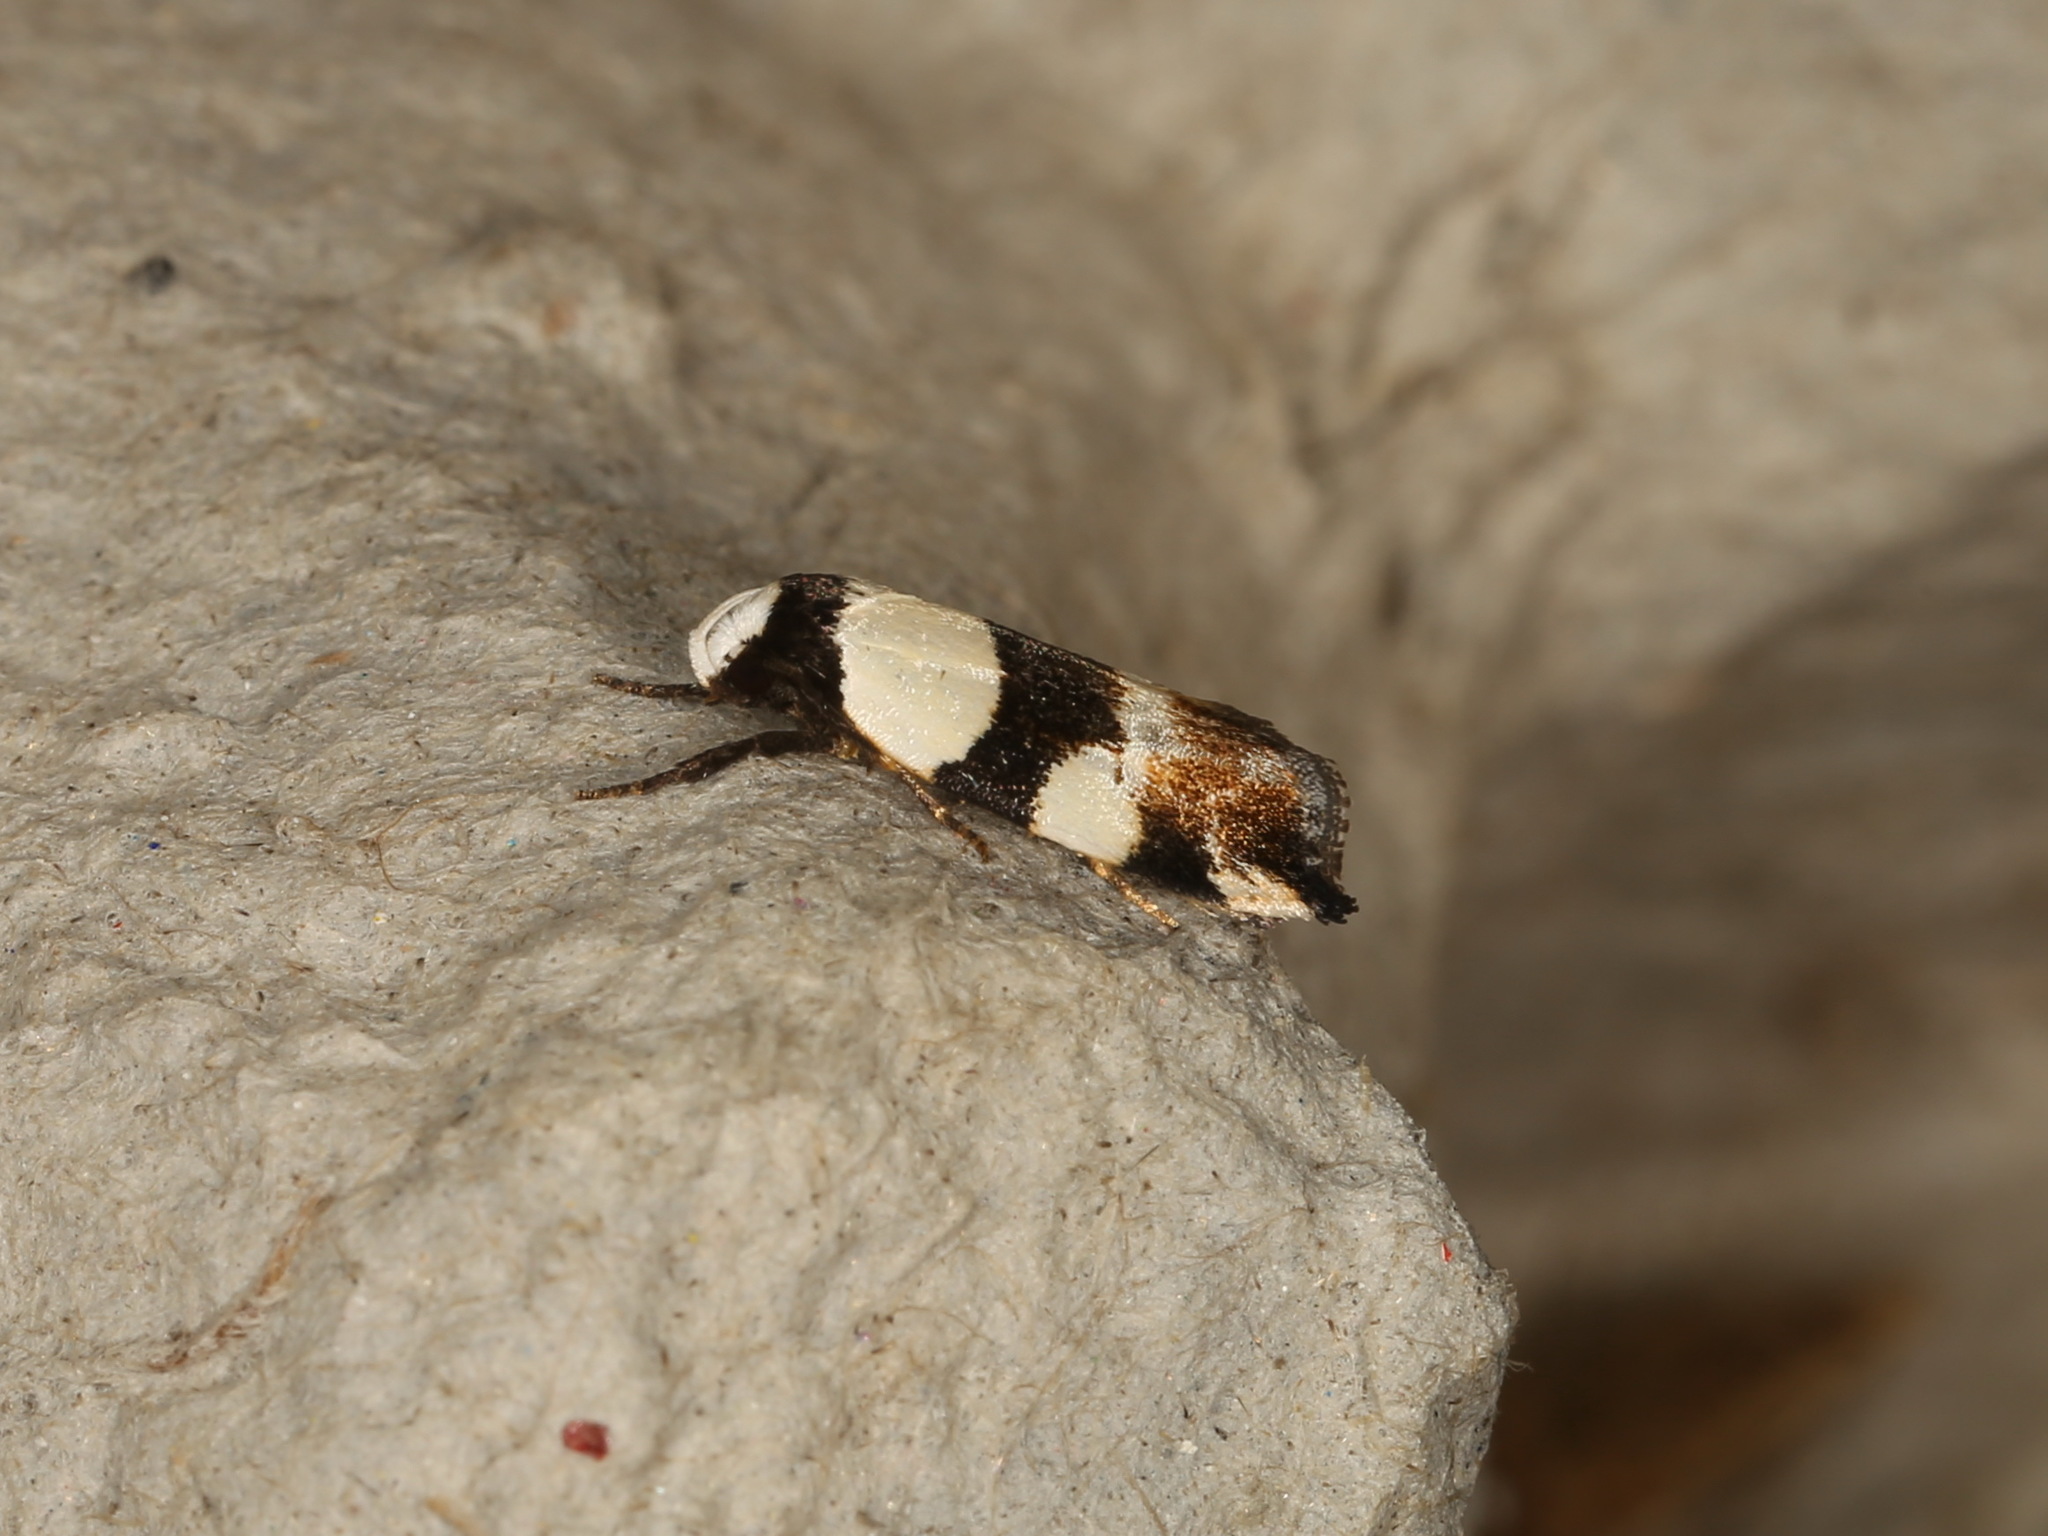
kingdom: Animalia
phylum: Arthropoda
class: Insecta
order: Lepidoptera
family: Oecophoridae
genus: Zonopetala
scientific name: Zonopetala decisana
